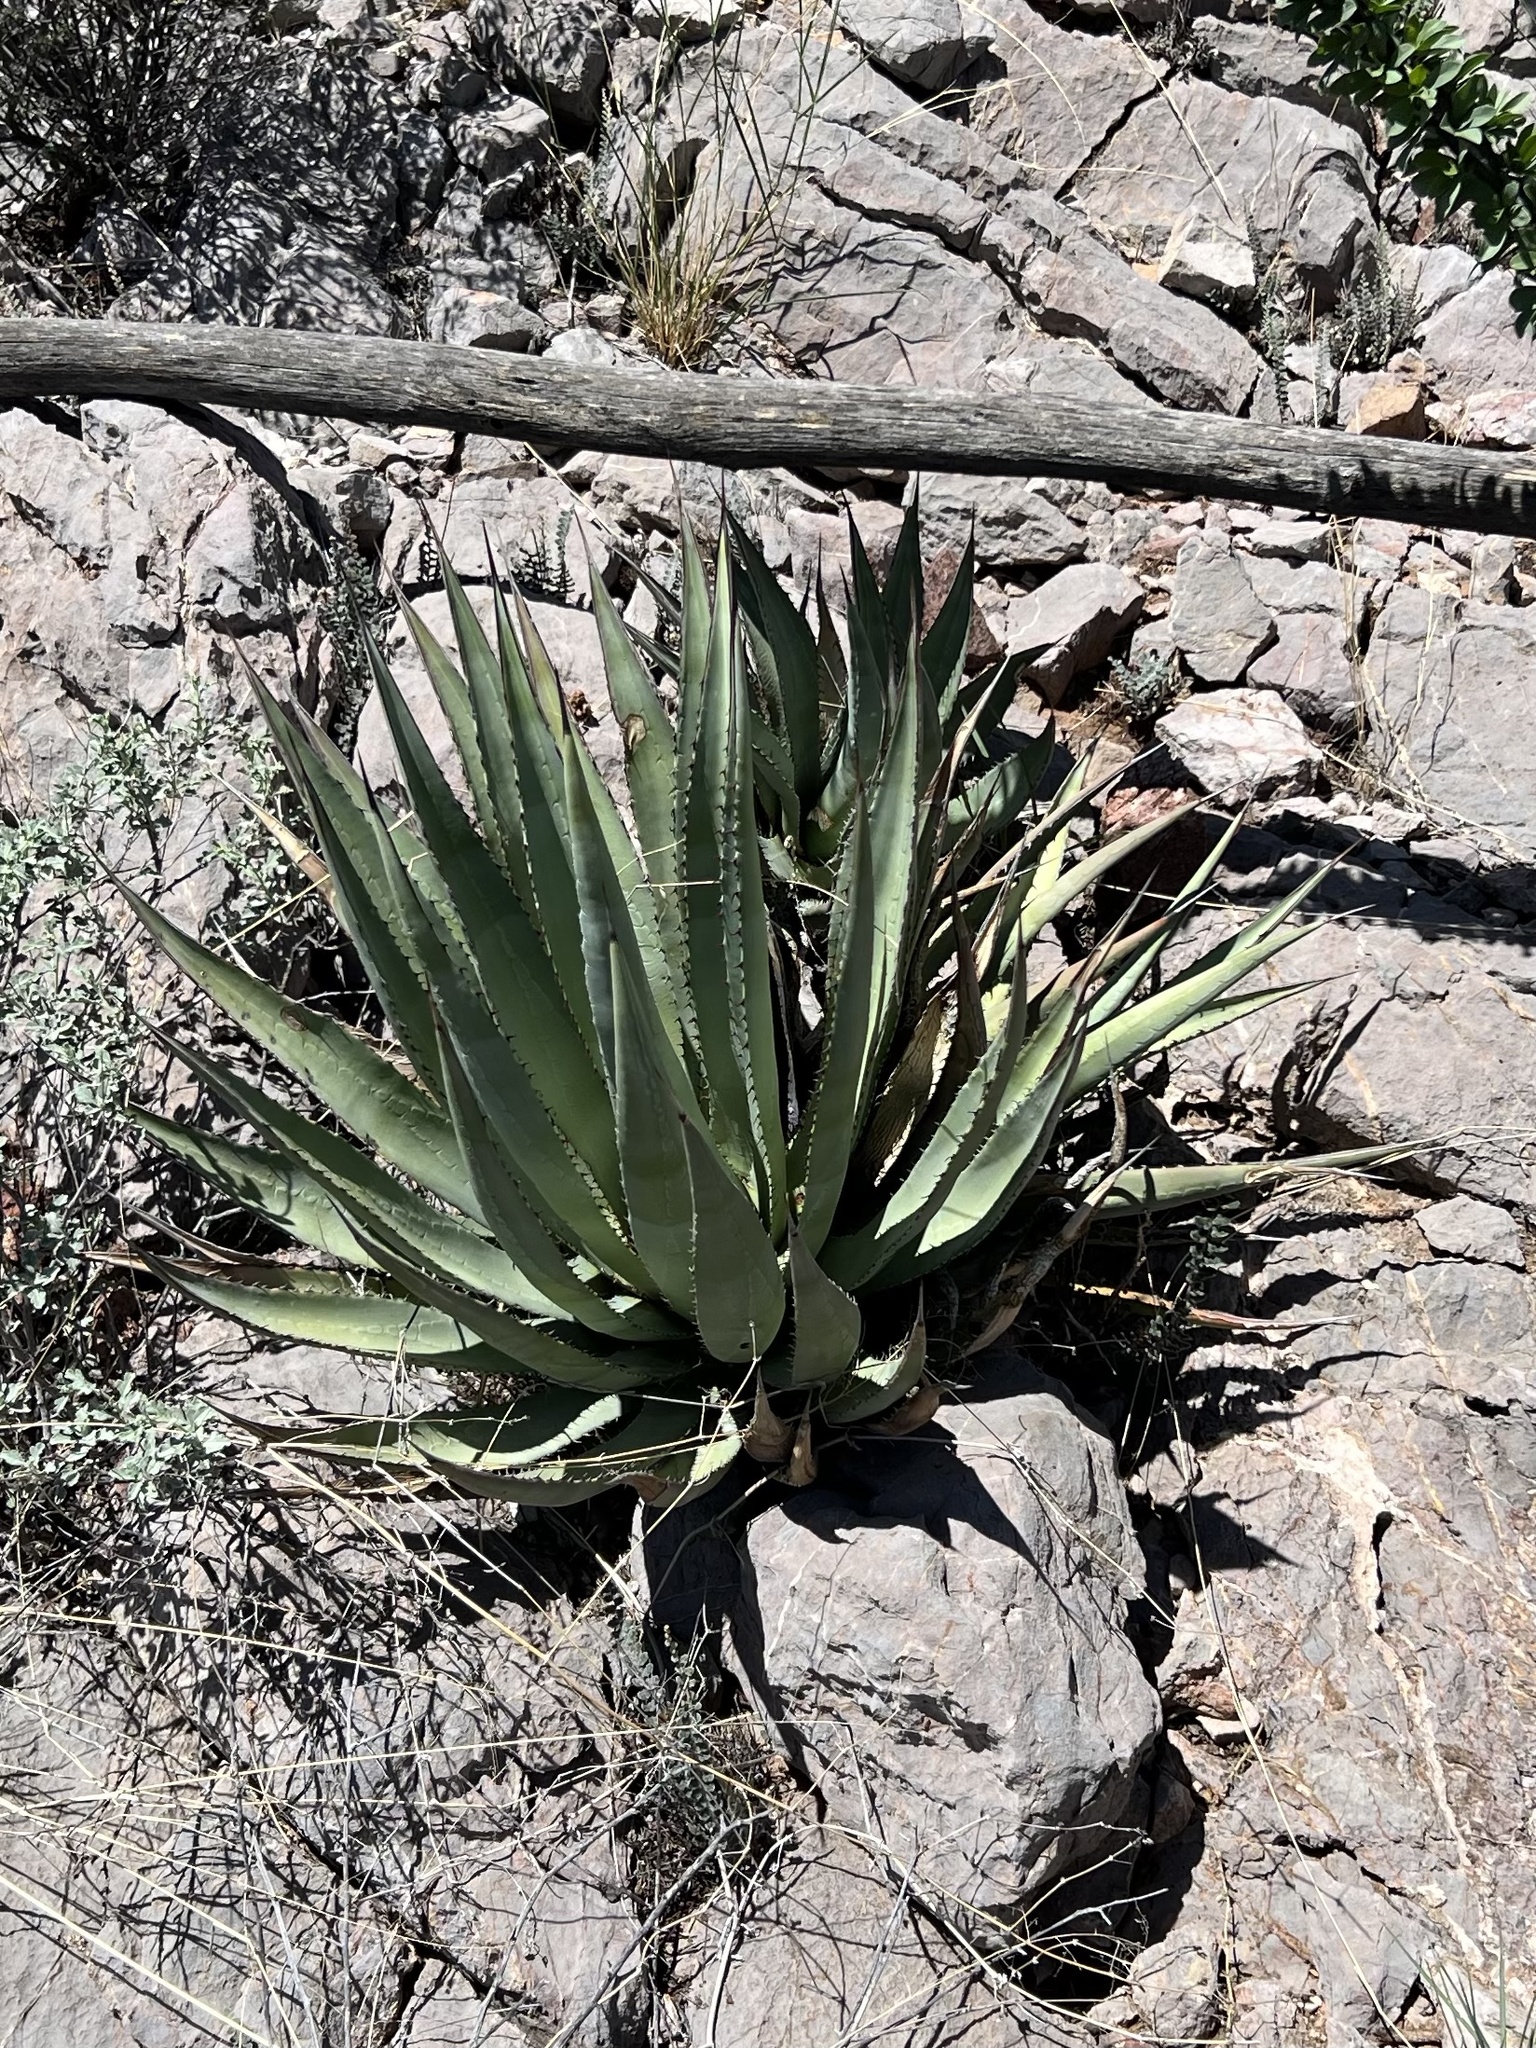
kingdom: Plantae
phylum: Tracheophyta
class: Liliopsida
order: Asparagales
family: Asparagaceae
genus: Agave
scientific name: Agave palmeri
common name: Palmer agave
